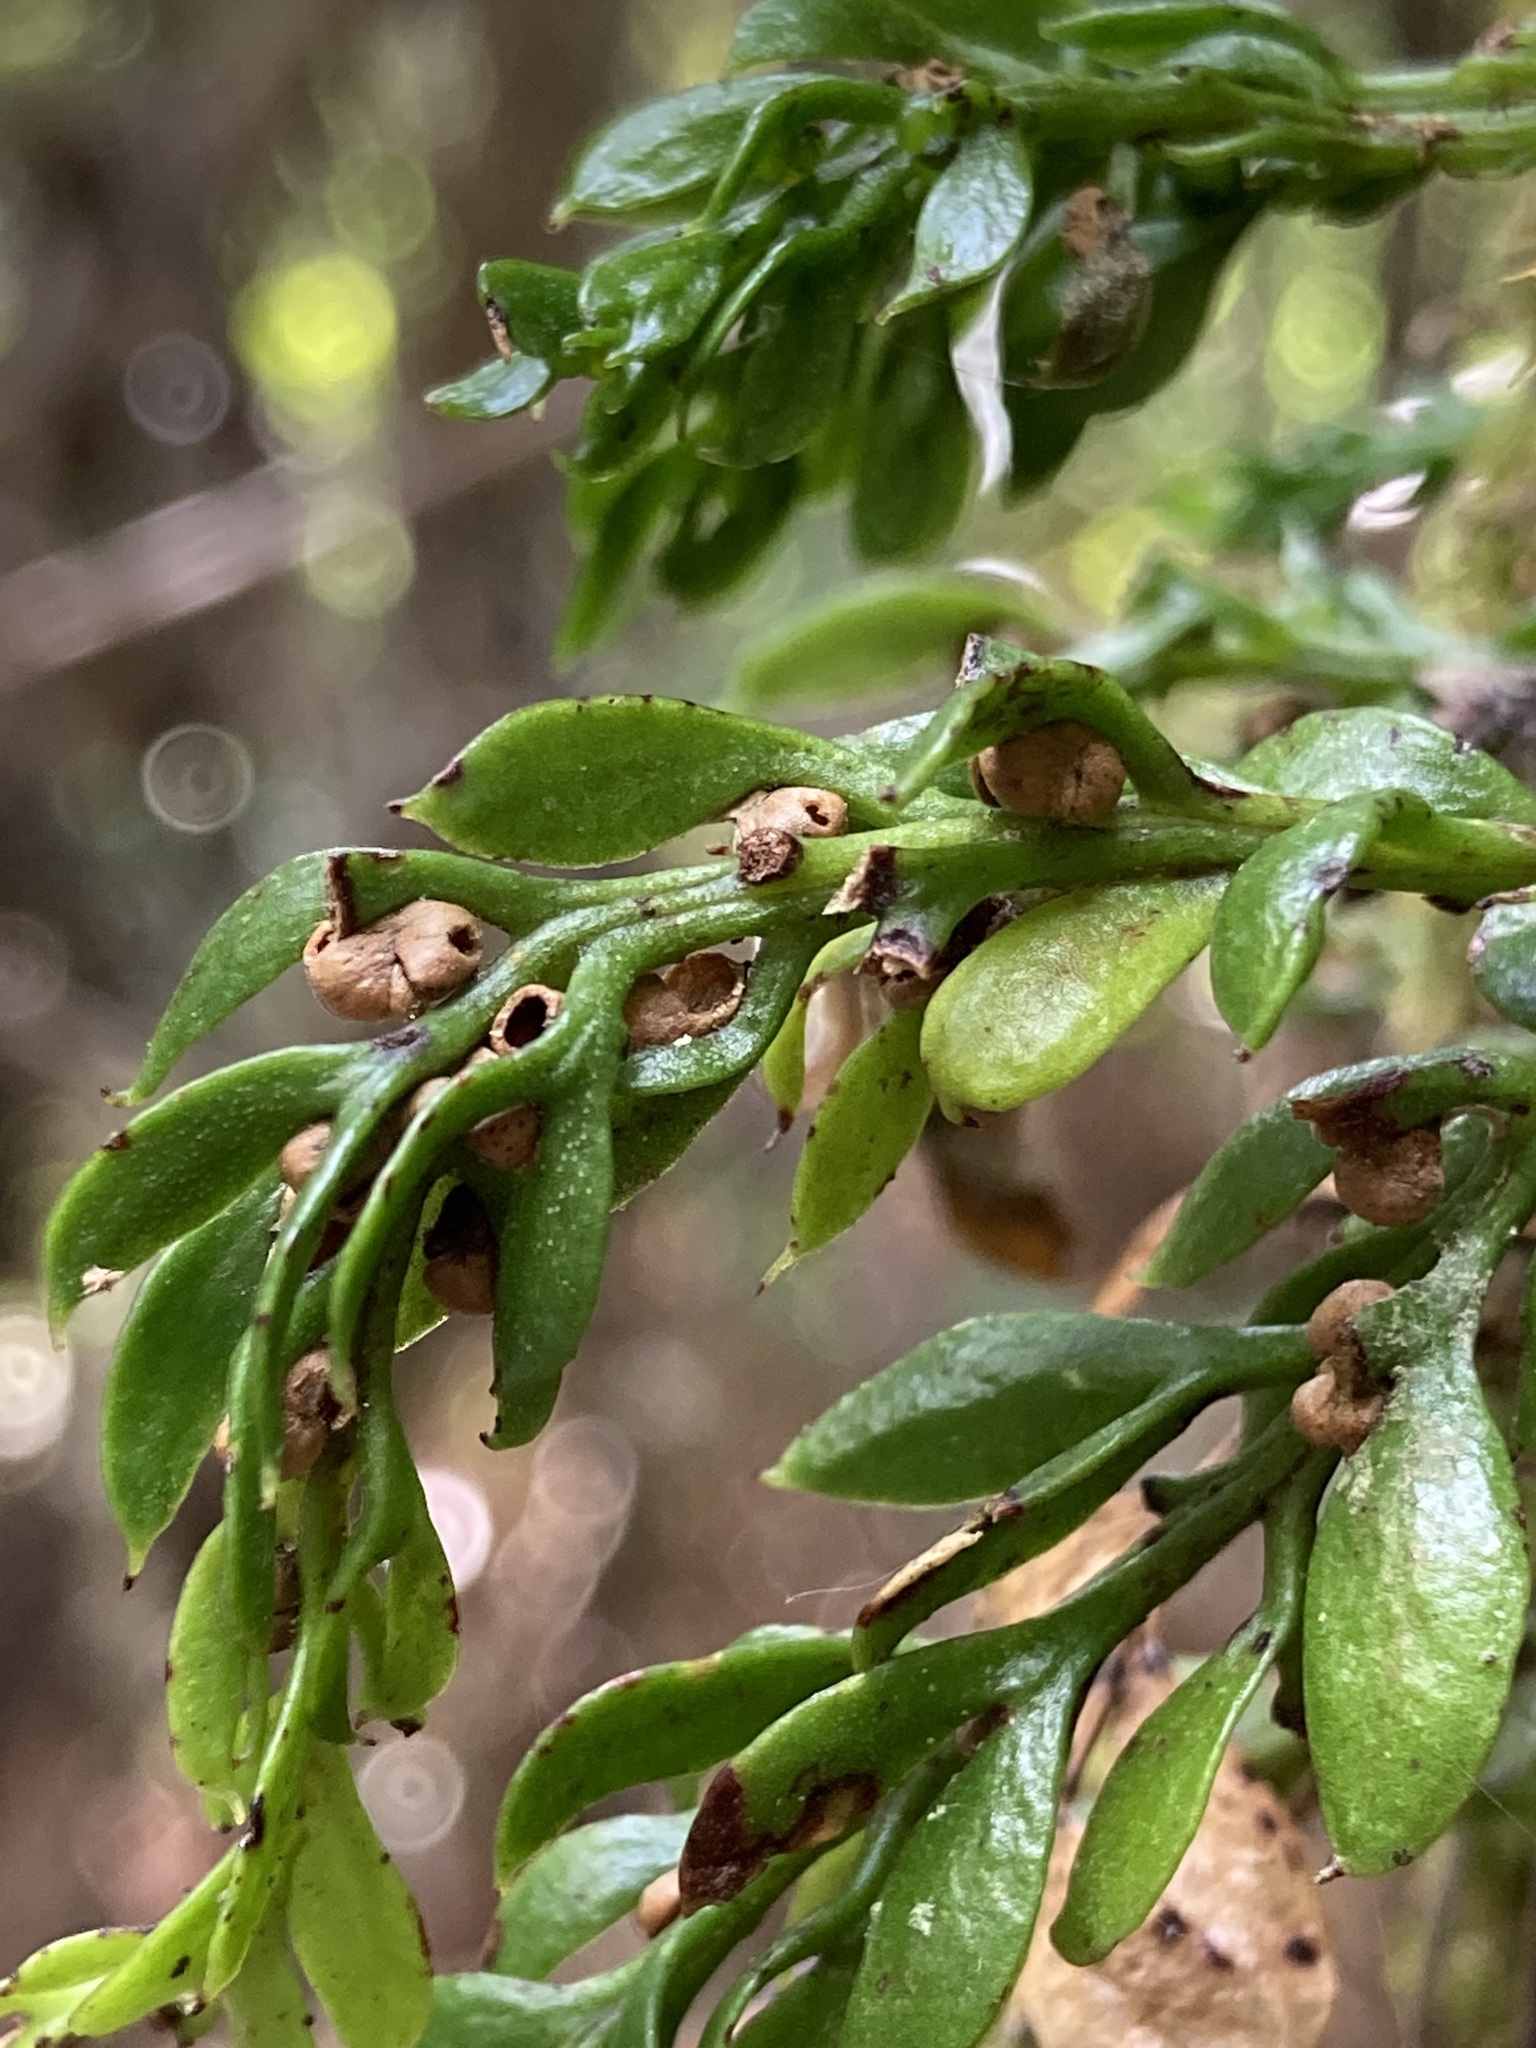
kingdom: Plantae
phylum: Tracheophyta
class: Polypodiopsida
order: Psilotales
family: Psilotaceae
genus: Tmesipteris
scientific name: Tmesipteris lanceolata
